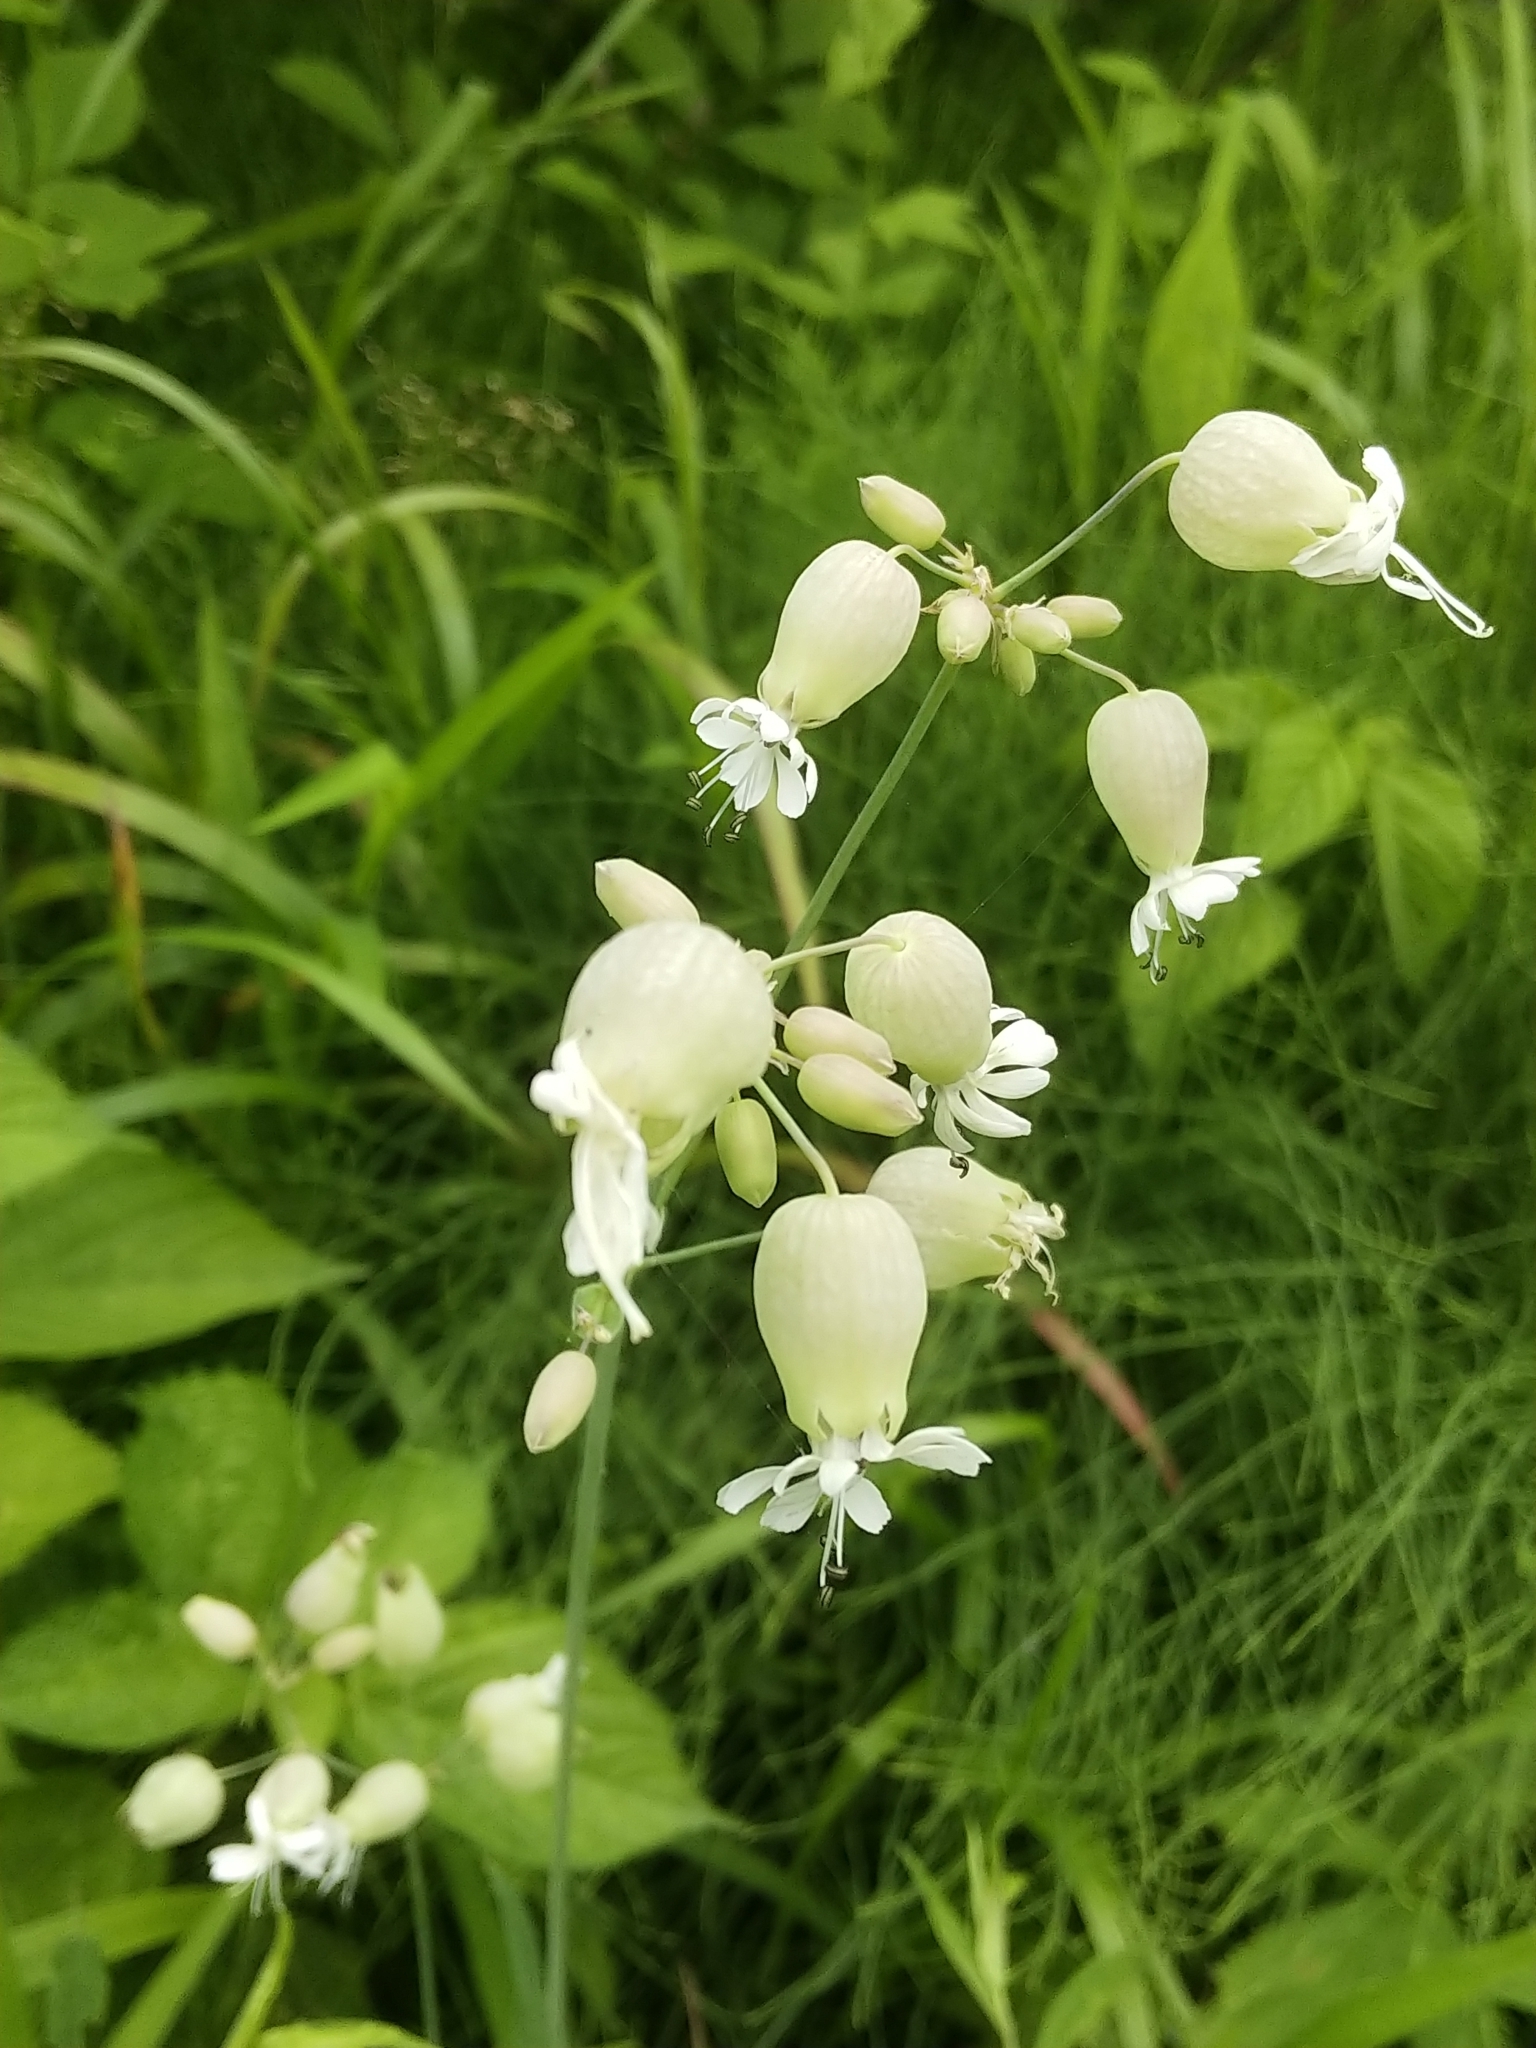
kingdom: Plantae
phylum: Tracheophyta
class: Magnoliopsida
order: Caryophyllales
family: Caryophyllaceae
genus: Silene
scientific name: Silene vulgaris
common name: Bladder campion
